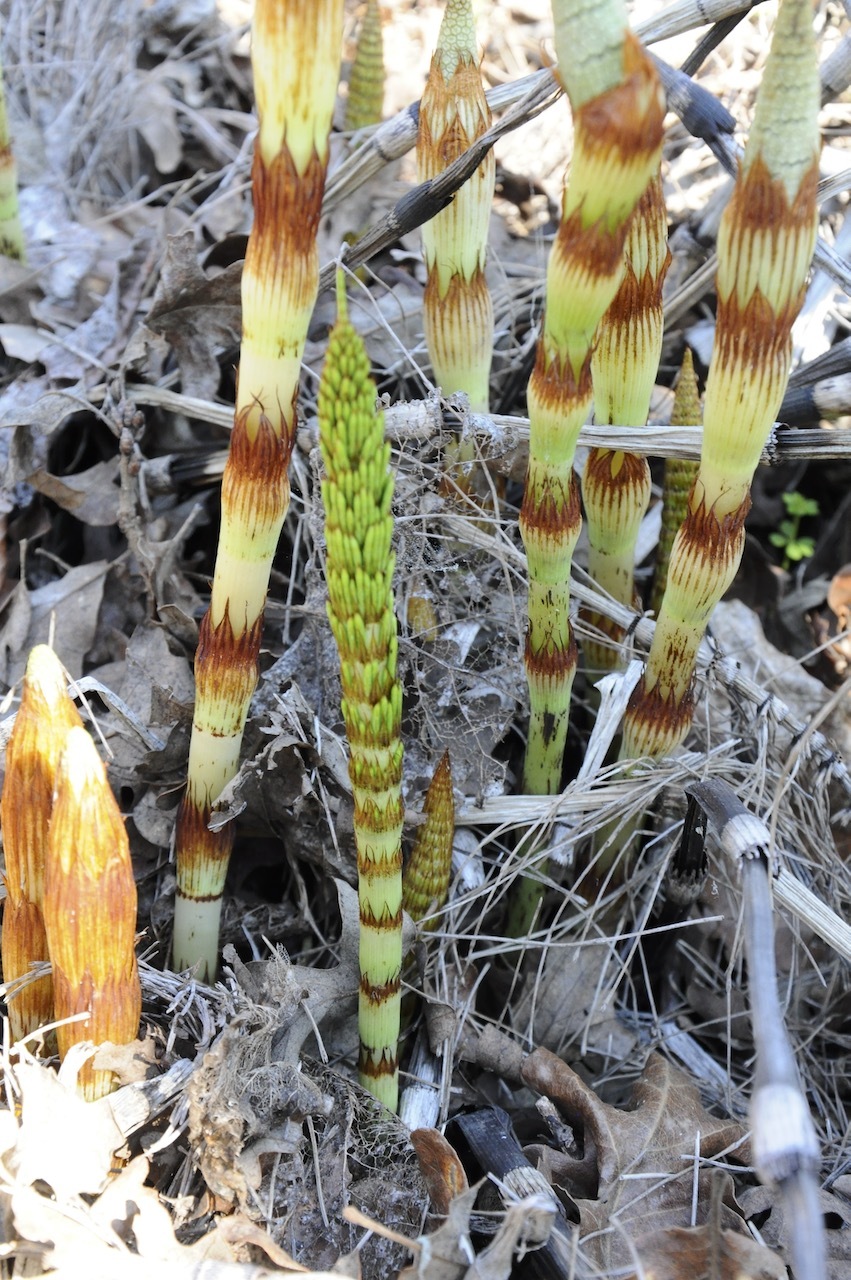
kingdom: Plantae
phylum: Tracheophyta
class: Polypodiopsida
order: Equisetales
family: Equisetaceae
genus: Equisetum
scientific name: Equisetum telmateia
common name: Great horsetail
